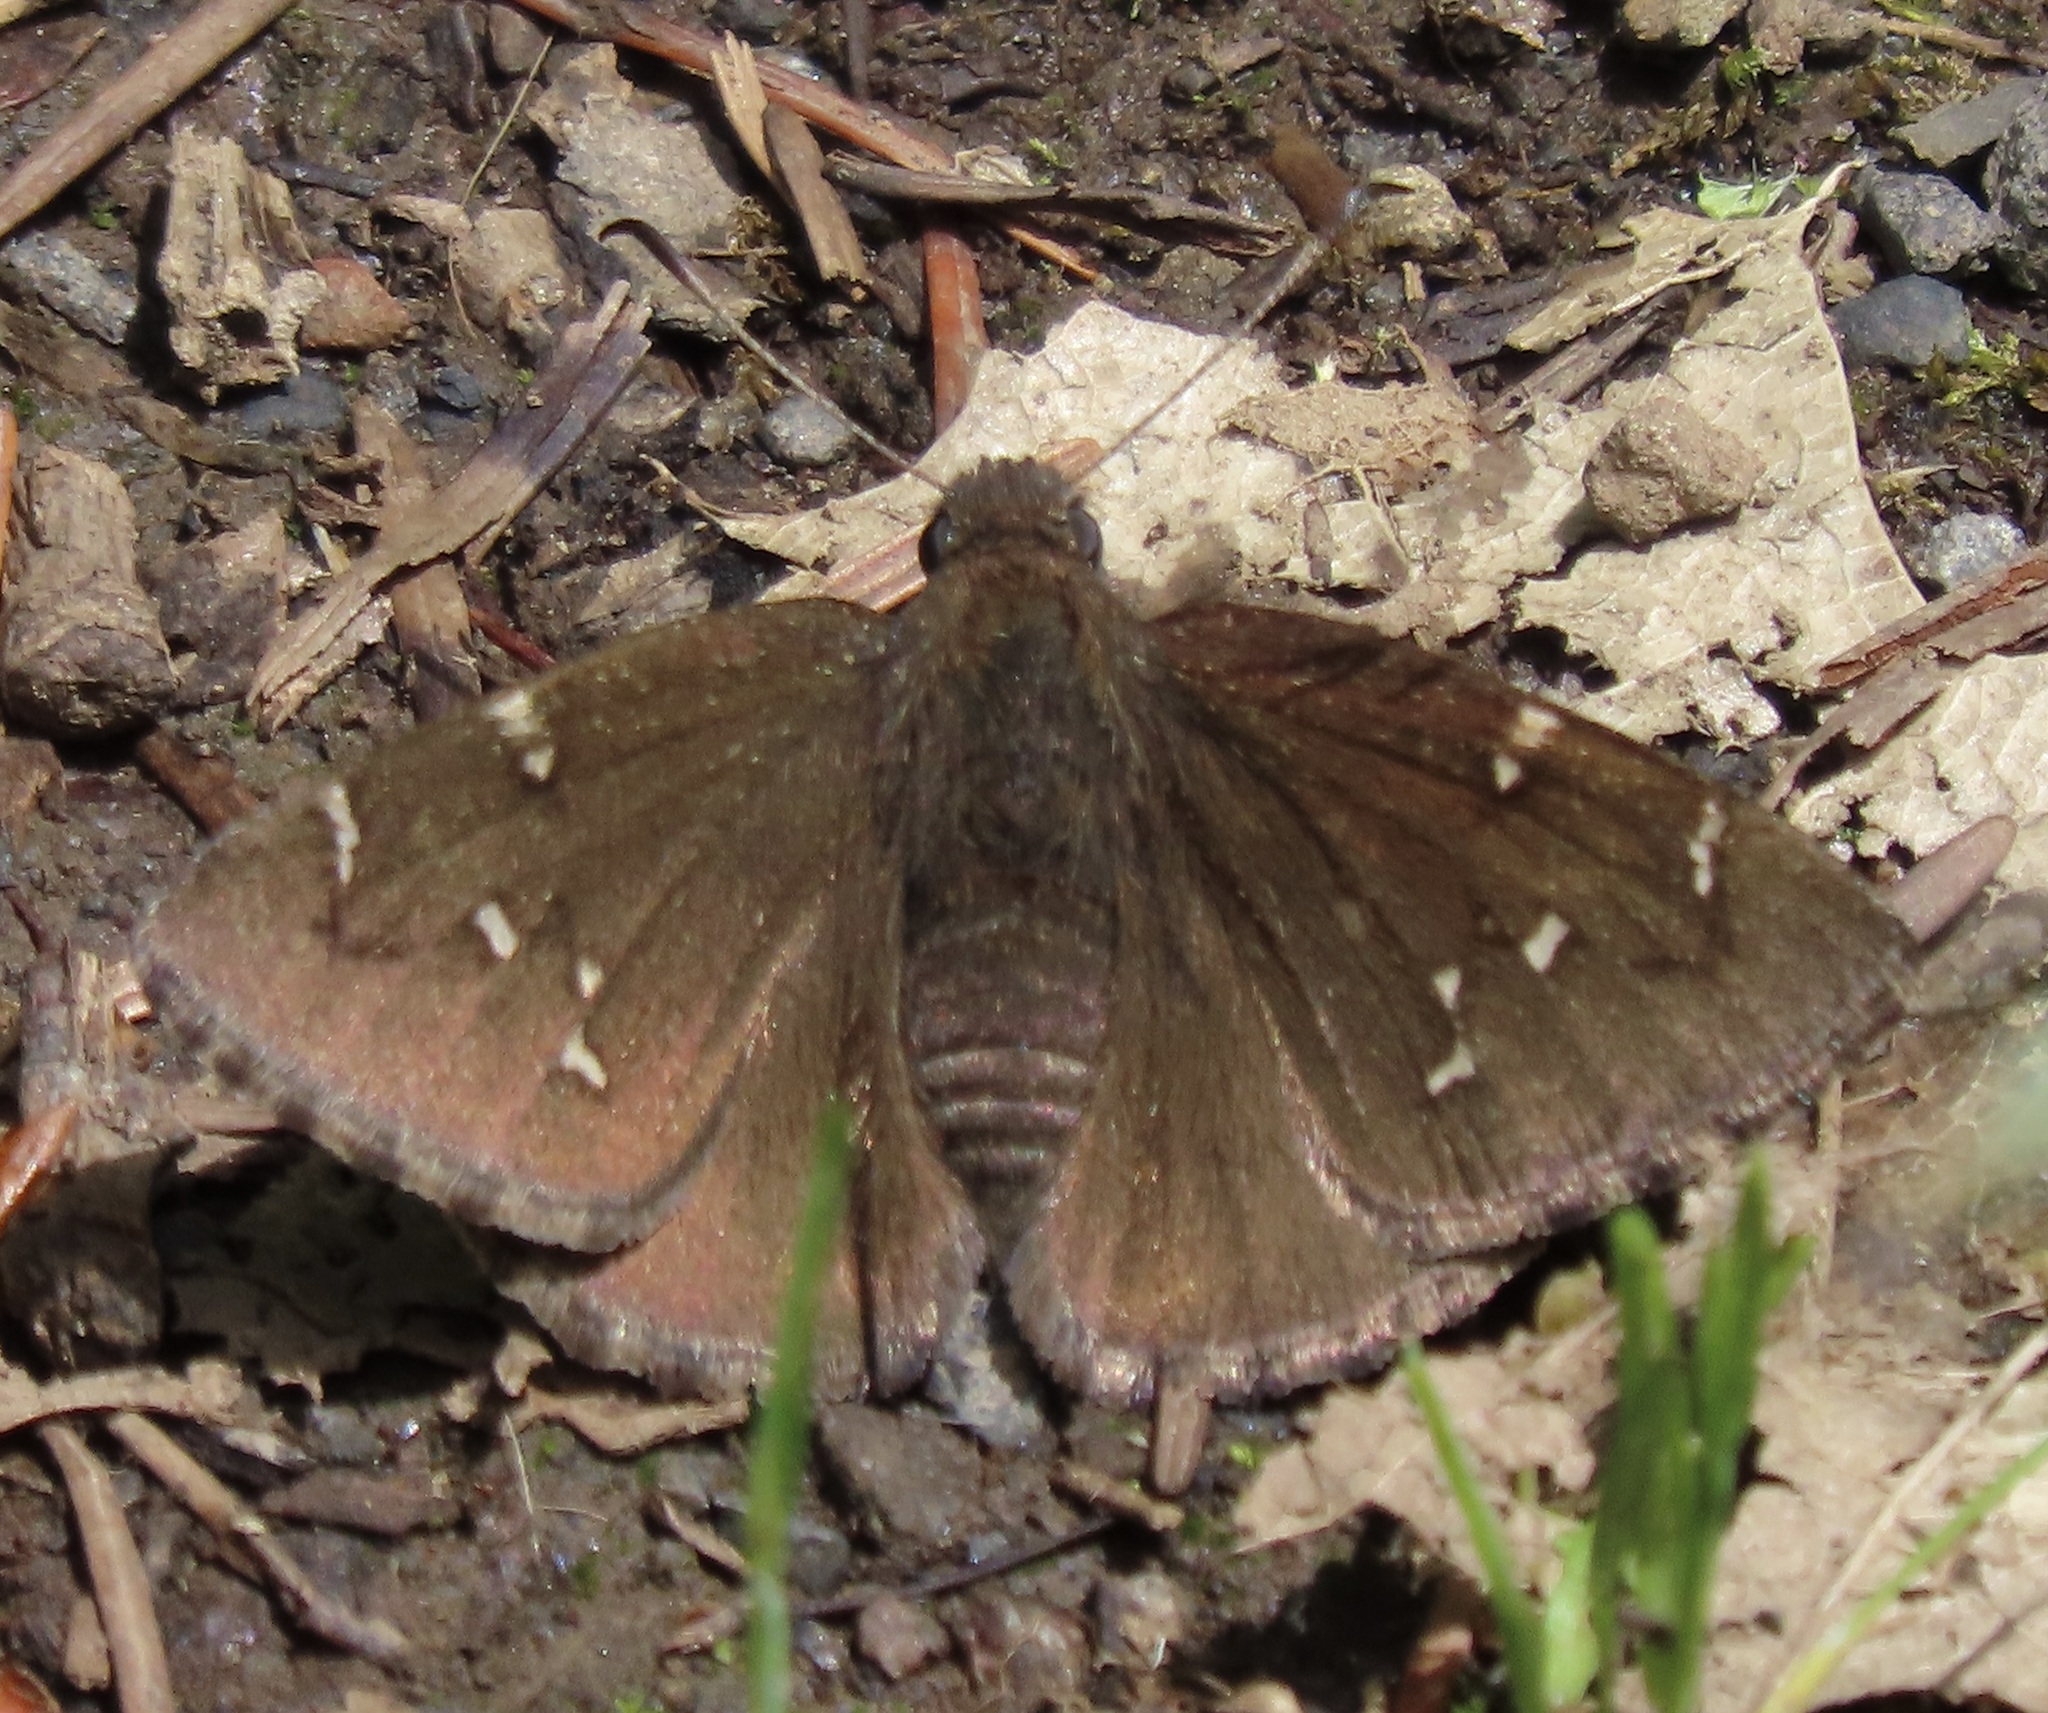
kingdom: Animalia
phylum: Arthropoda
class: Insecta
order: Lepidoptera
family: Hesperiidae
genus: Thorybes
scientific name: Thorybes pylades
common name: Northern cloudywing
